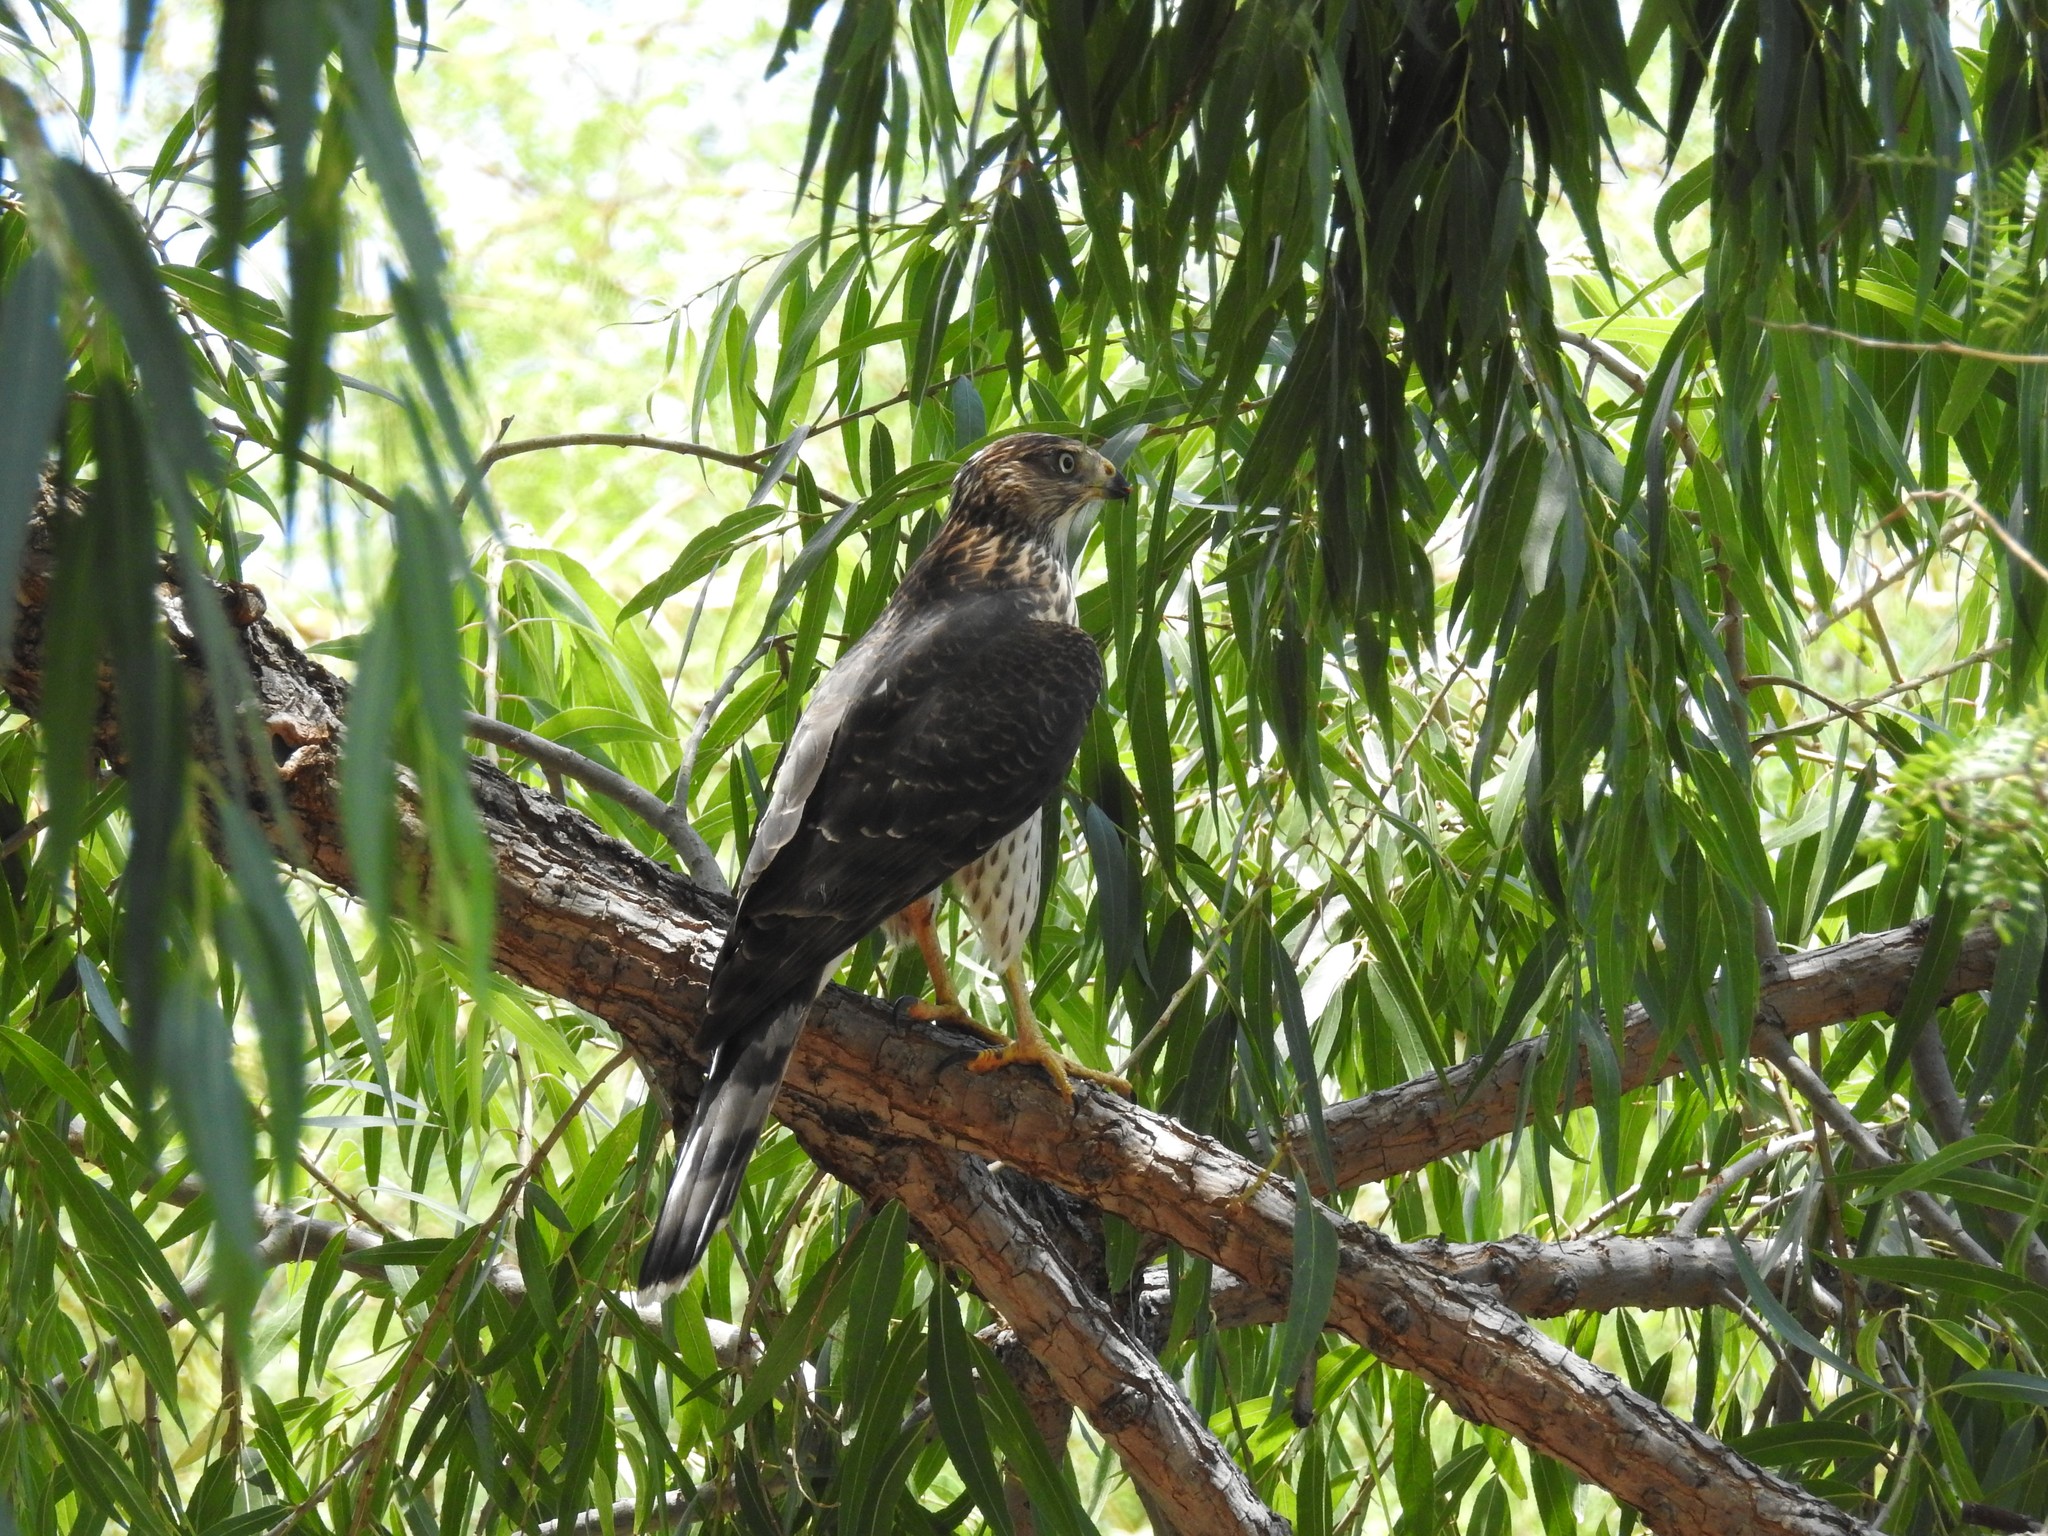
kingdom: Animalia
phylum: Chordata
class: Aves
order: Accipitriformes
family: Accipitridae
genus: Accipiter
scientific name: Accipiter cooperii
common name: Cooper's hawk
